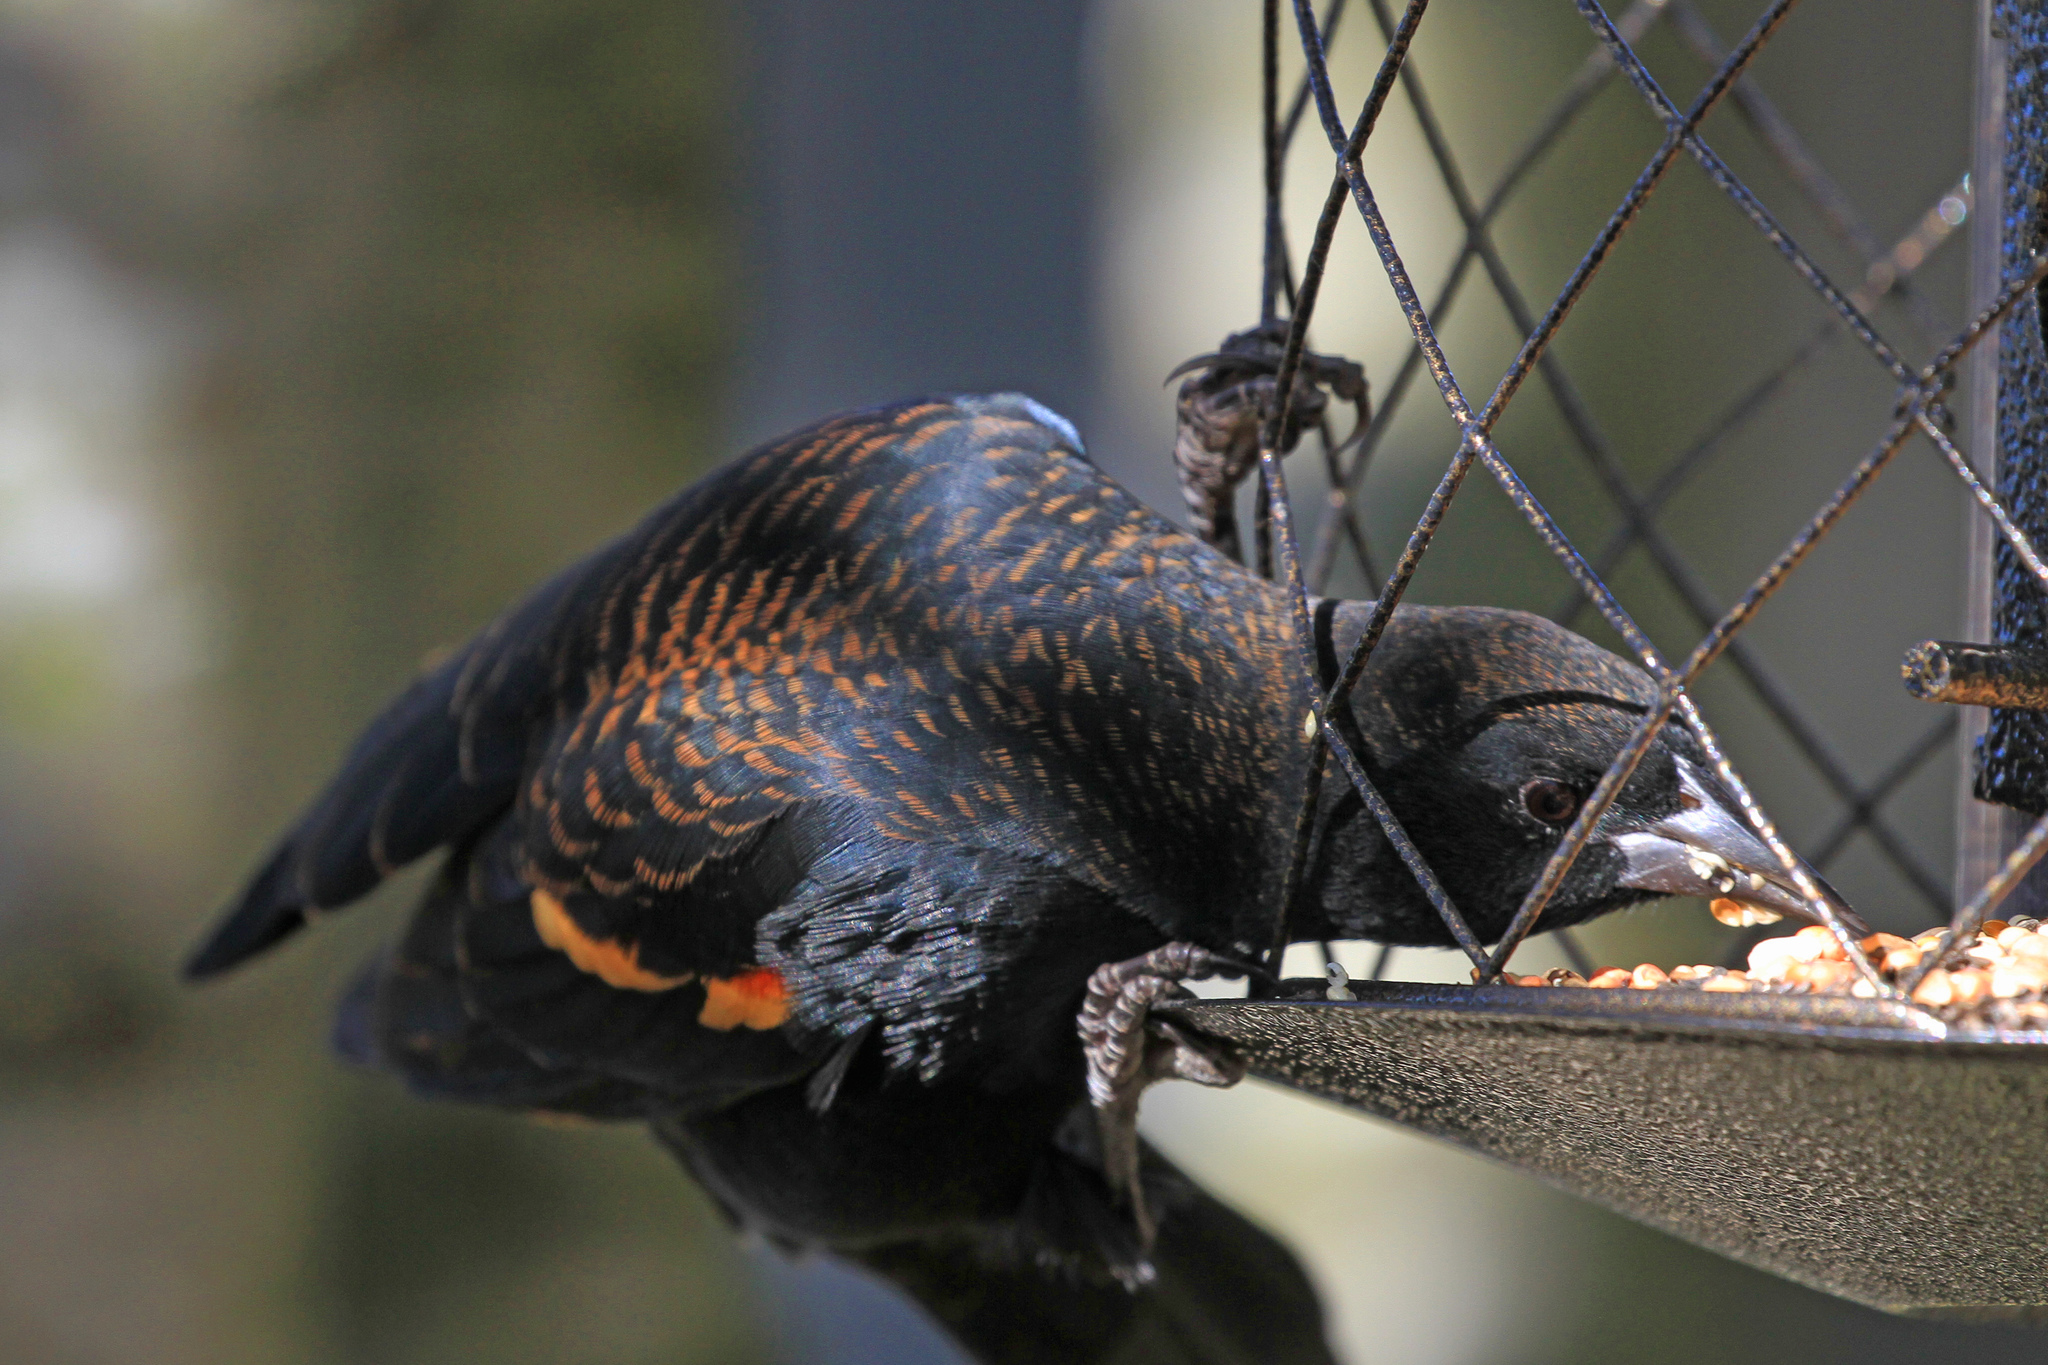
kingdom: Animalia
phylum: Chordata
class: Aves
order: Passeriformes
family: Icteridae
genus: Agelaius
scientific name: Agelaius phoeniceus
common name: Red-winged blackbird
